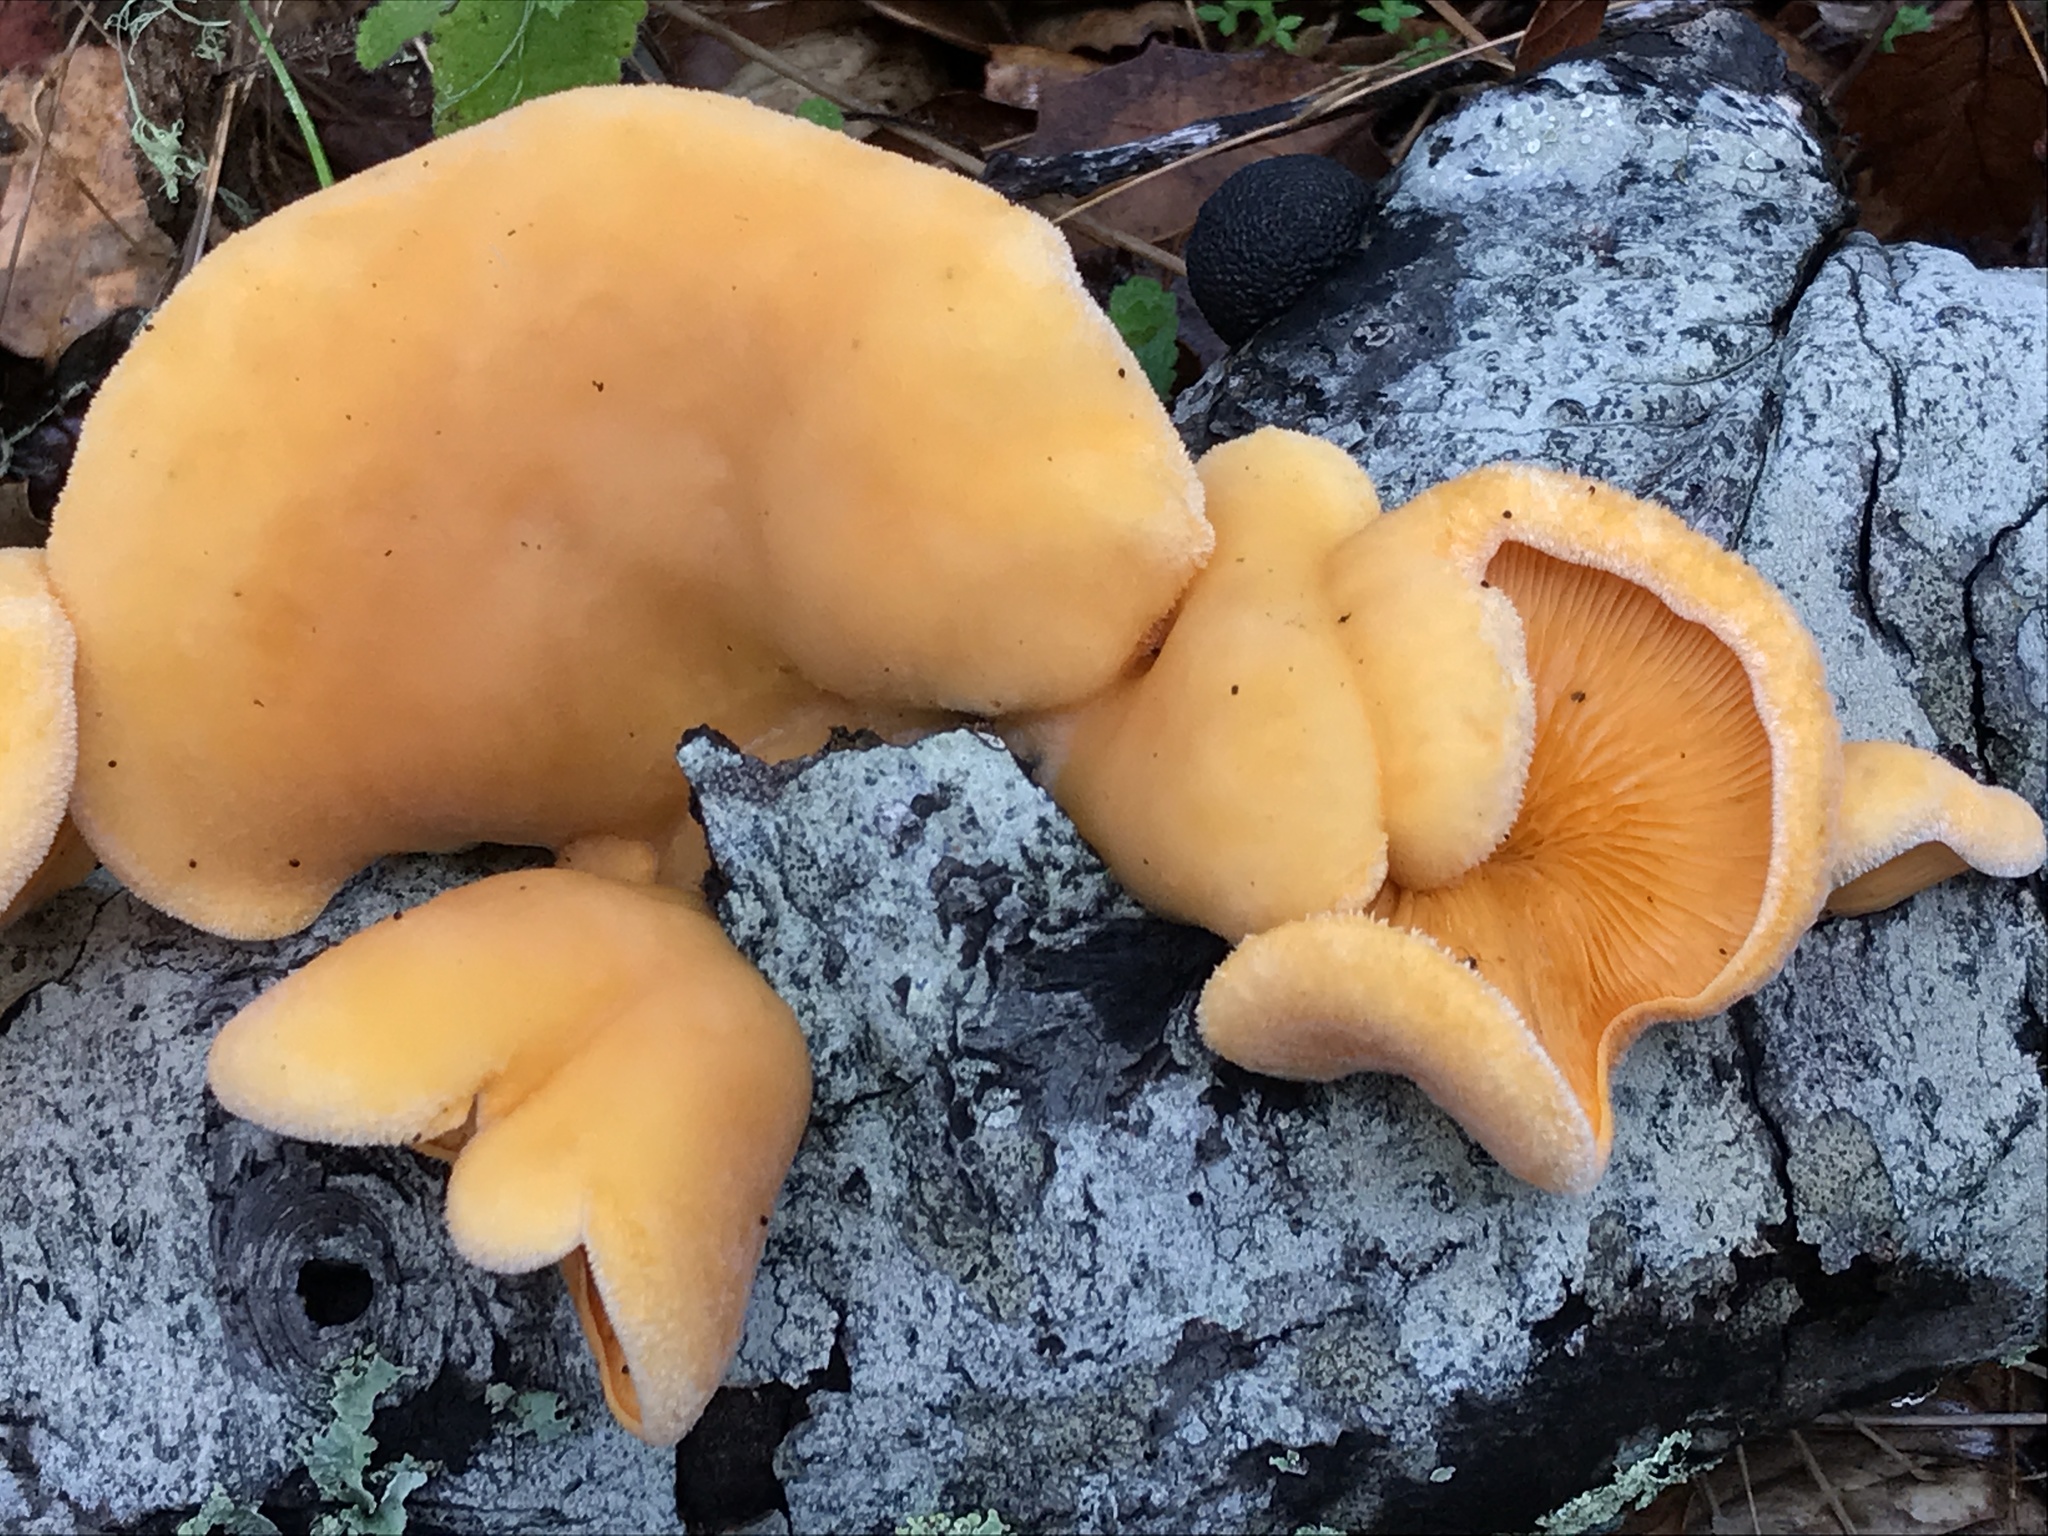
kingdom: Fungi
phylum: Basidiomycota
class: Agaricomycetes
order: Agaricales
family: Phyllotopsidaceae
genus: Phyllotopsis
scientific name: Phyllotopsis nidulans
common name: Orange mock oyster
